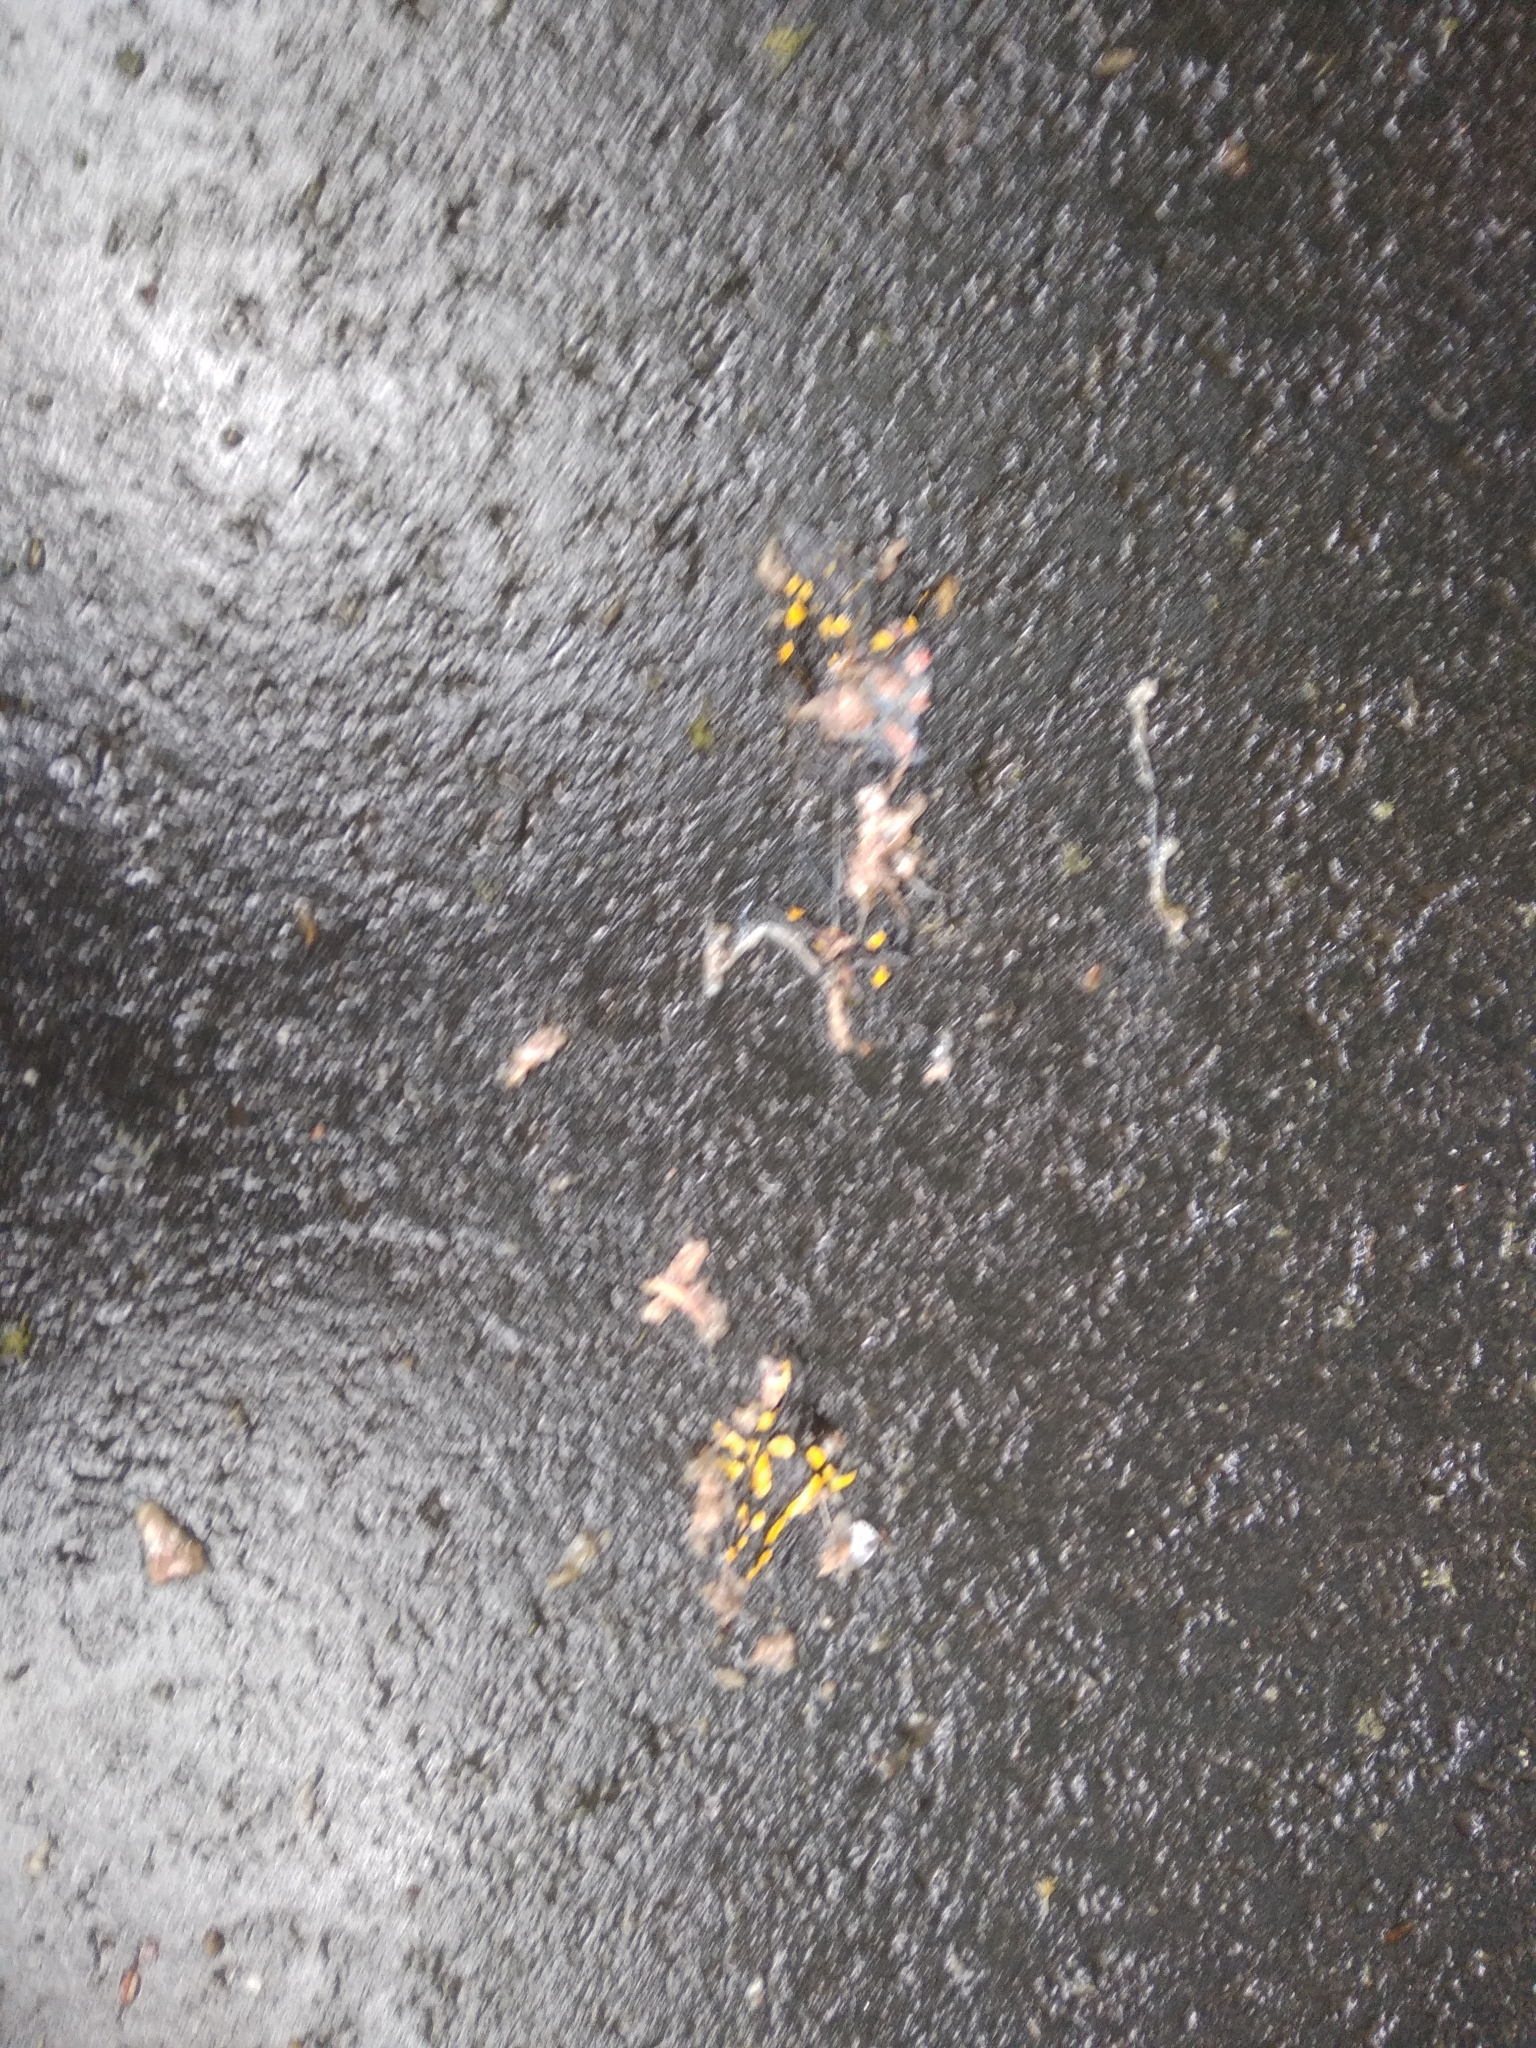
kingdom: Animalia
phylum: Chordata
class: Amphibia
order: Caudata
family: Salamandridae
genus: Salamandra
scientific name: Salamandra salamandra
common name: Fire salamander
